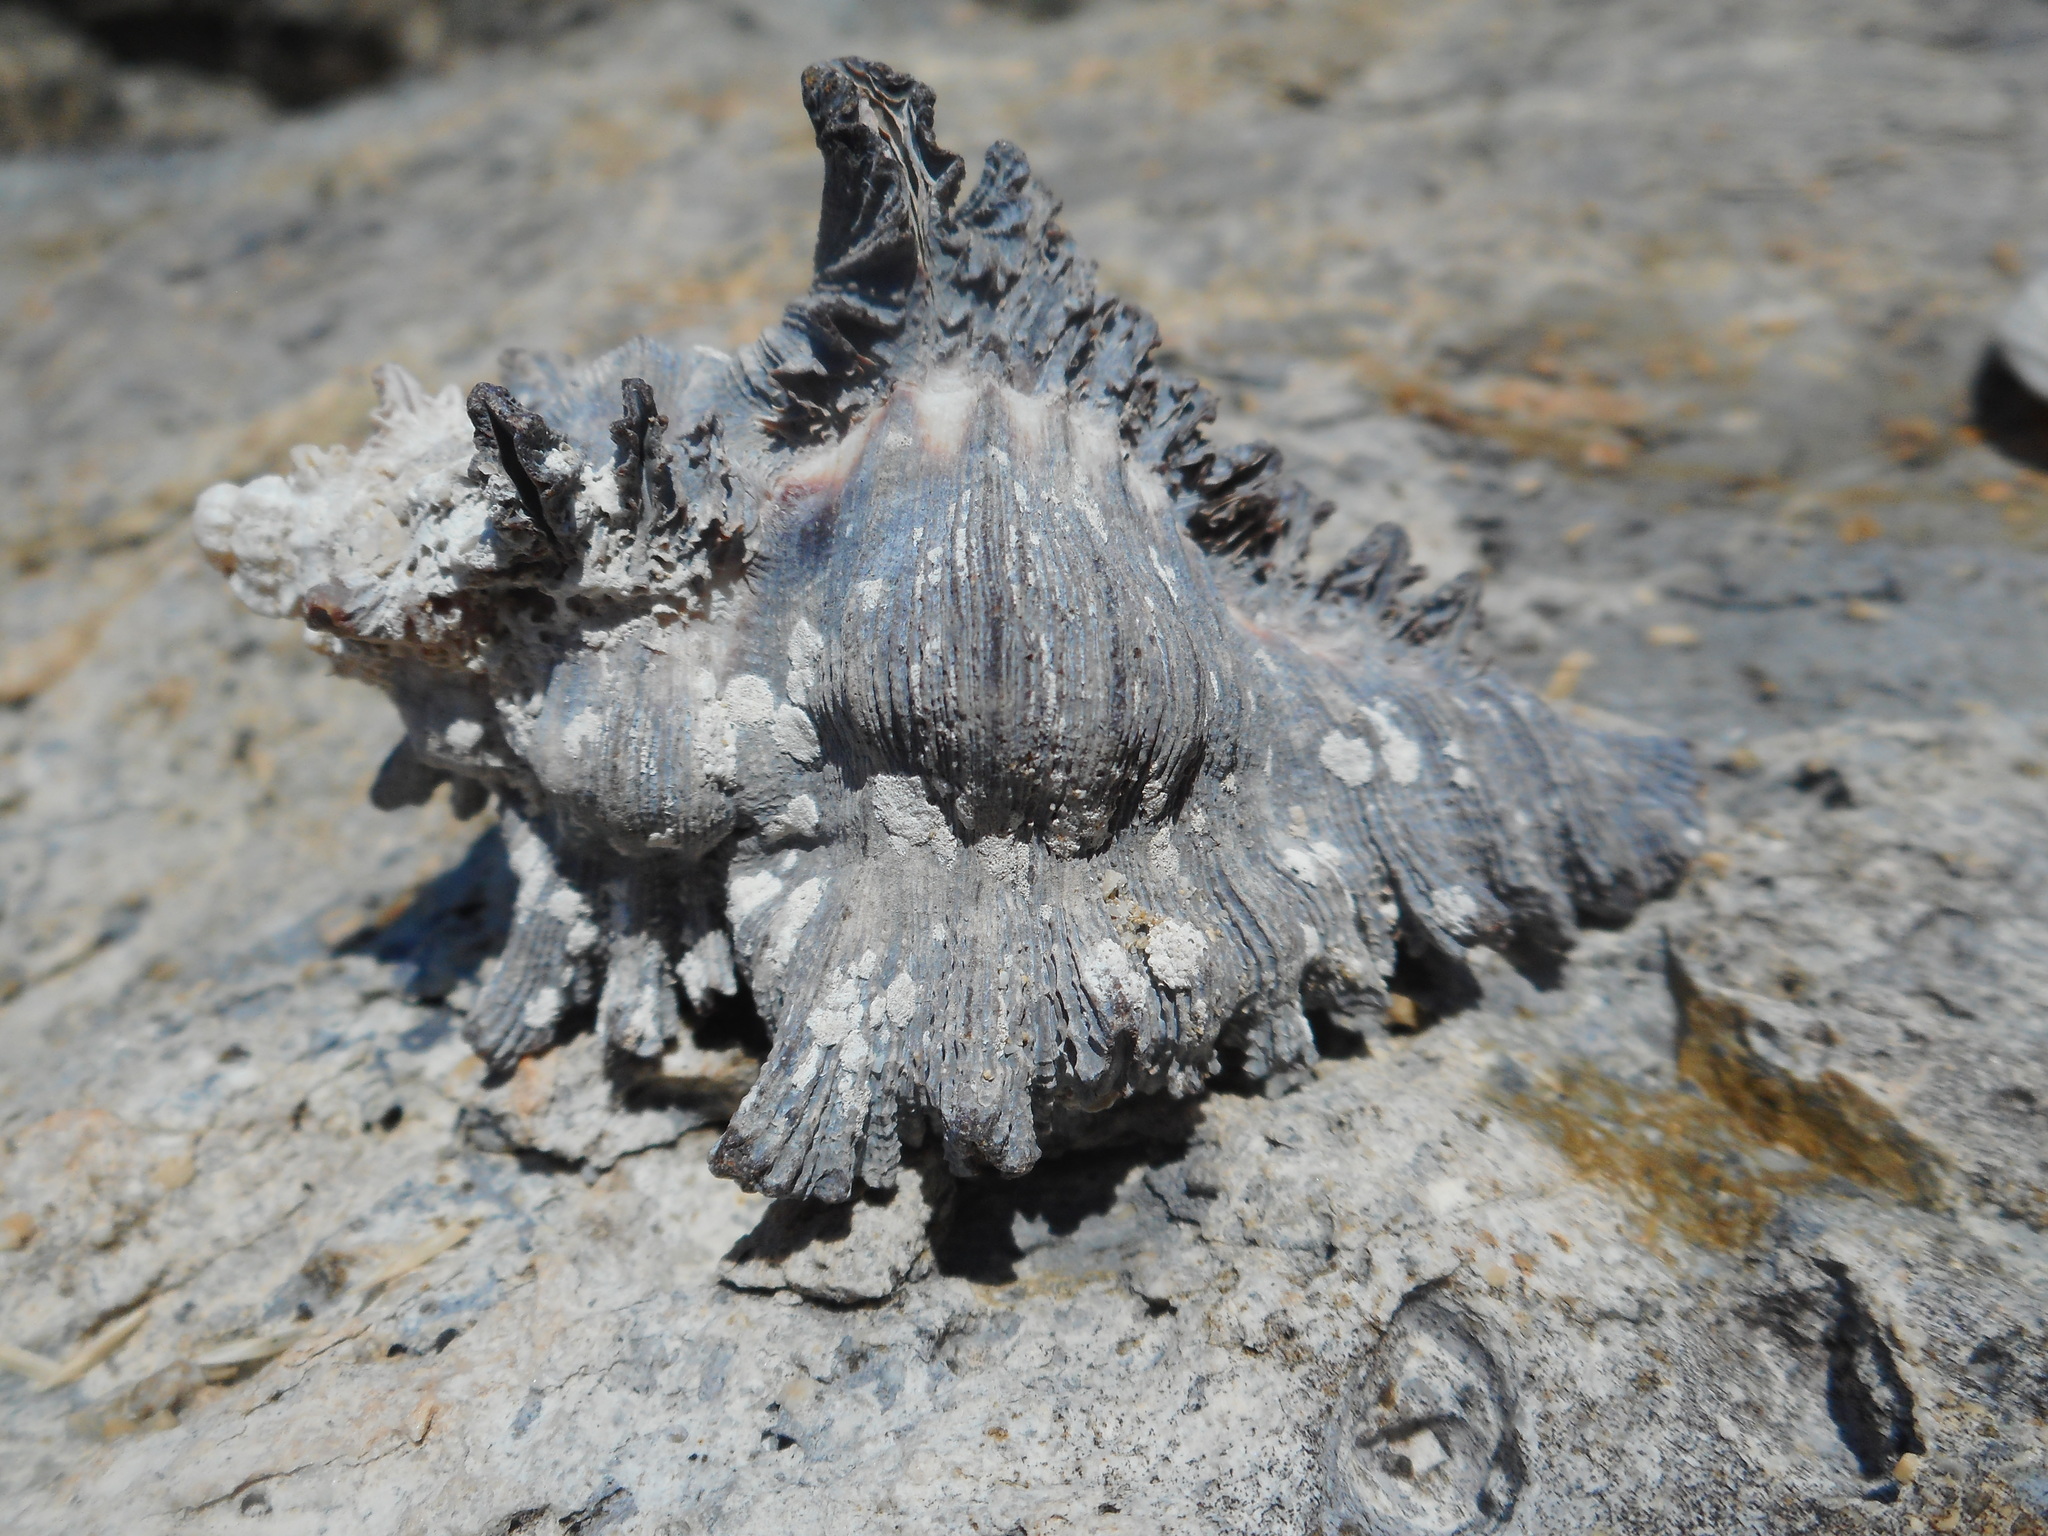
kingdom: Animalia
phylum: Mollusca
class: Gastropoda
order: Neogastropoda
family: Muricidae
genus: Chicoreus
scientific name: Chicoreus brunneus
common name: Adusta murex
